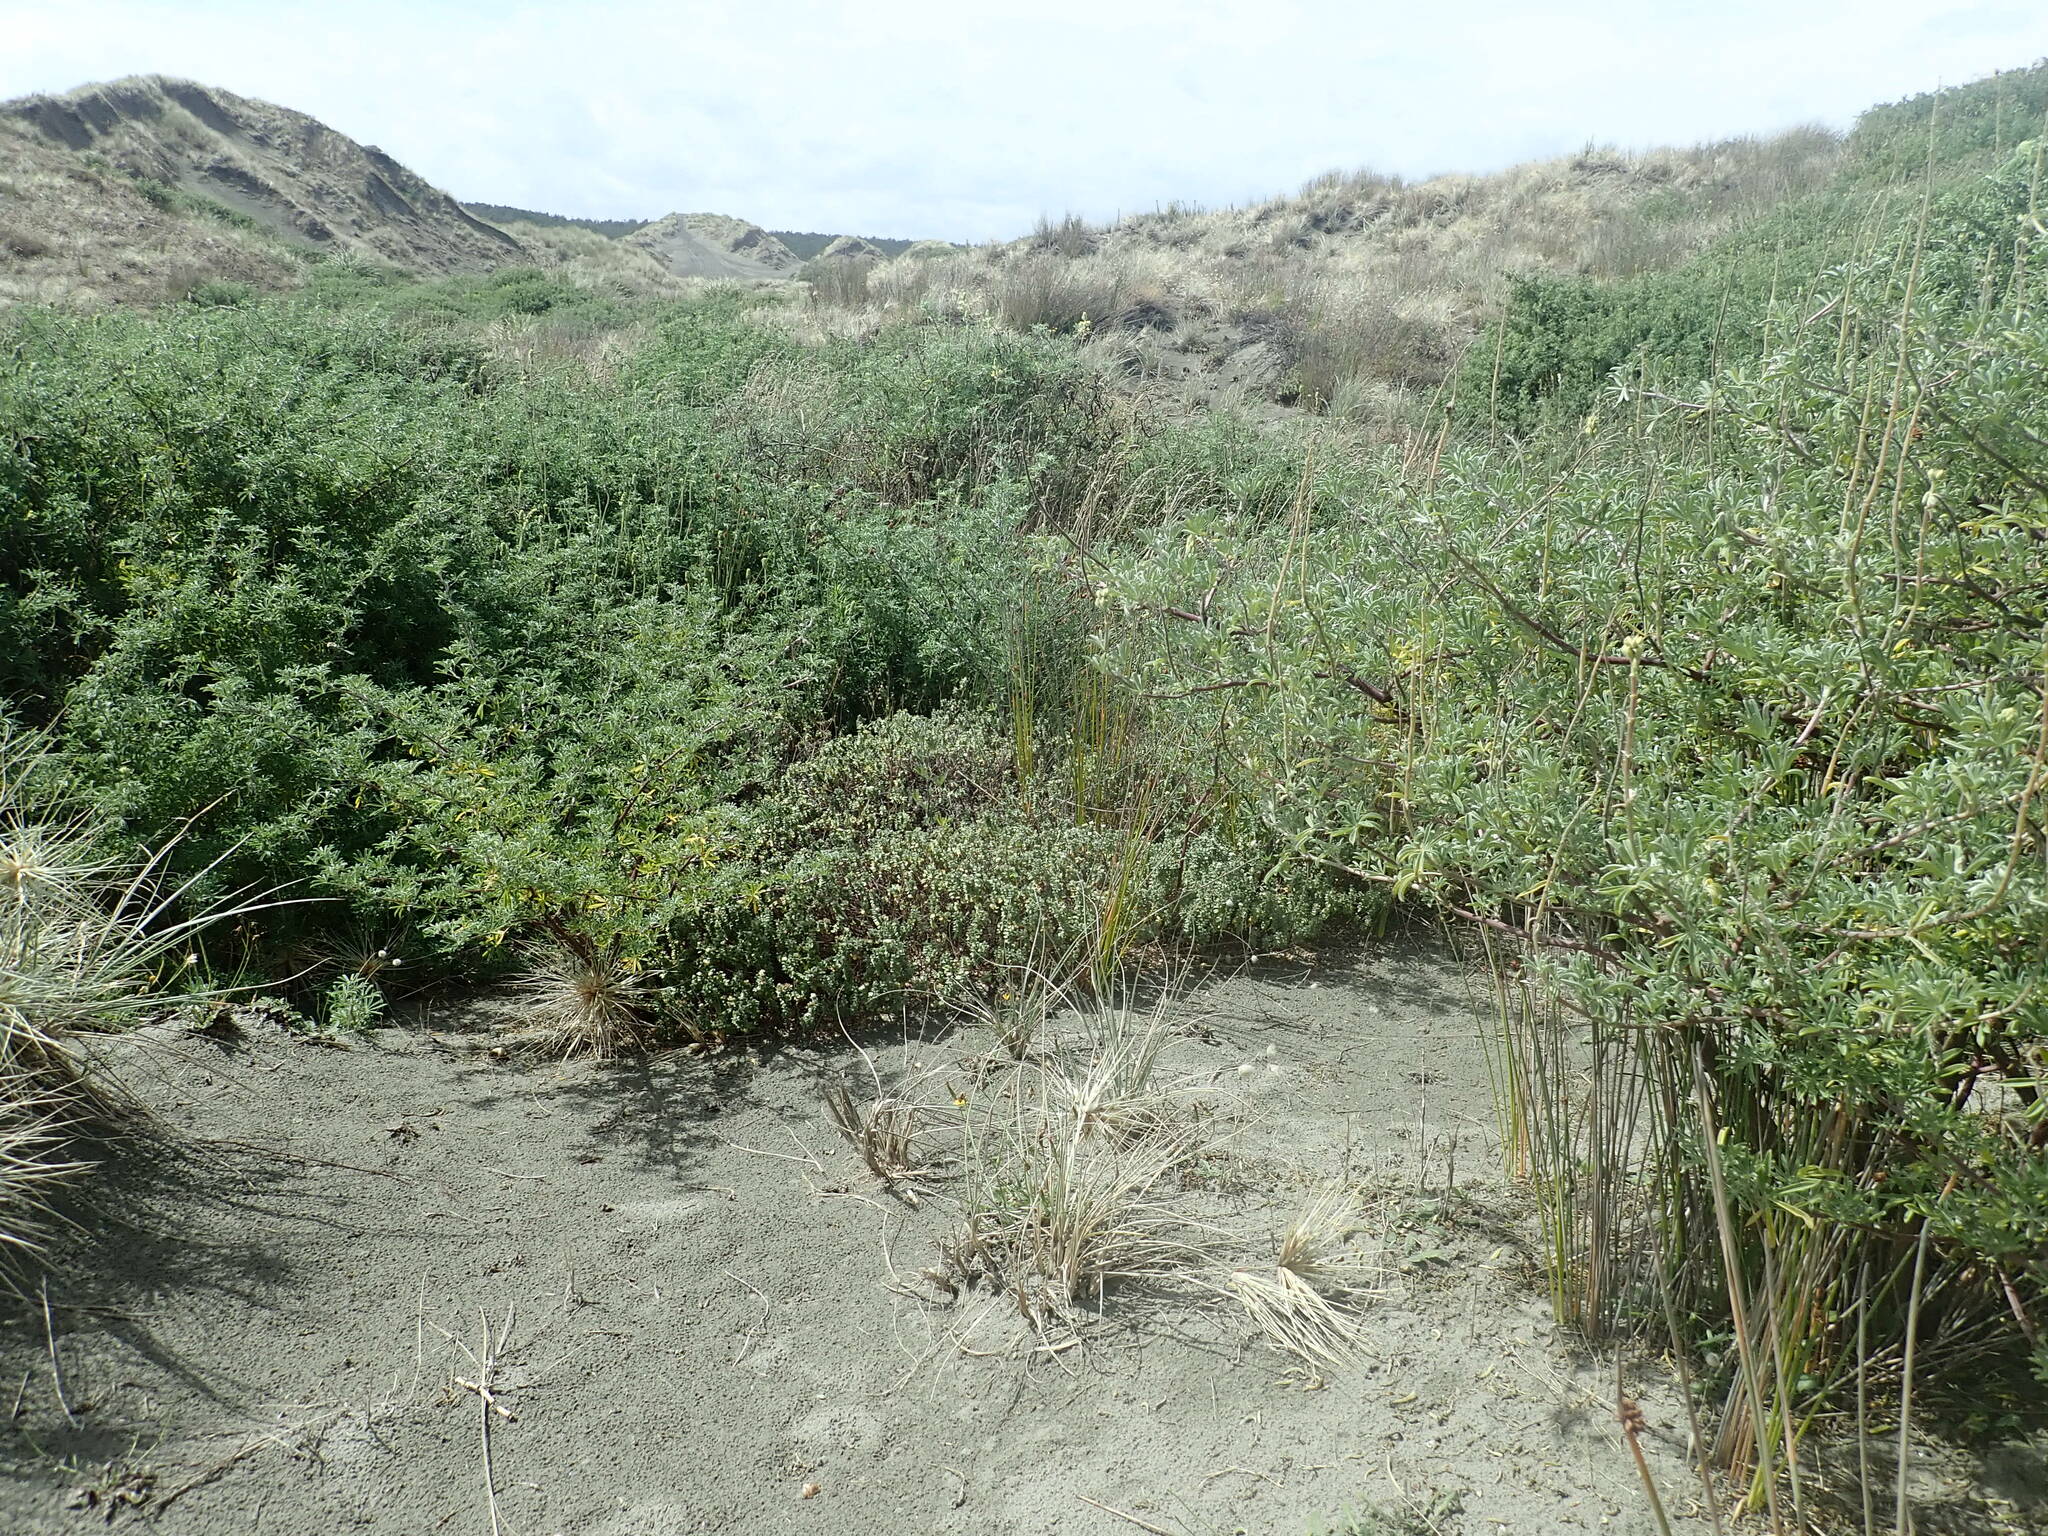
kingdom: Plantae
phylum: Tracheophyta
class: Magnoliopsida
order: Fabales
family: Fabaceae
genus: Lupinus
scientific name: Lupinus arboreus
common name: Yellow bush lupine
